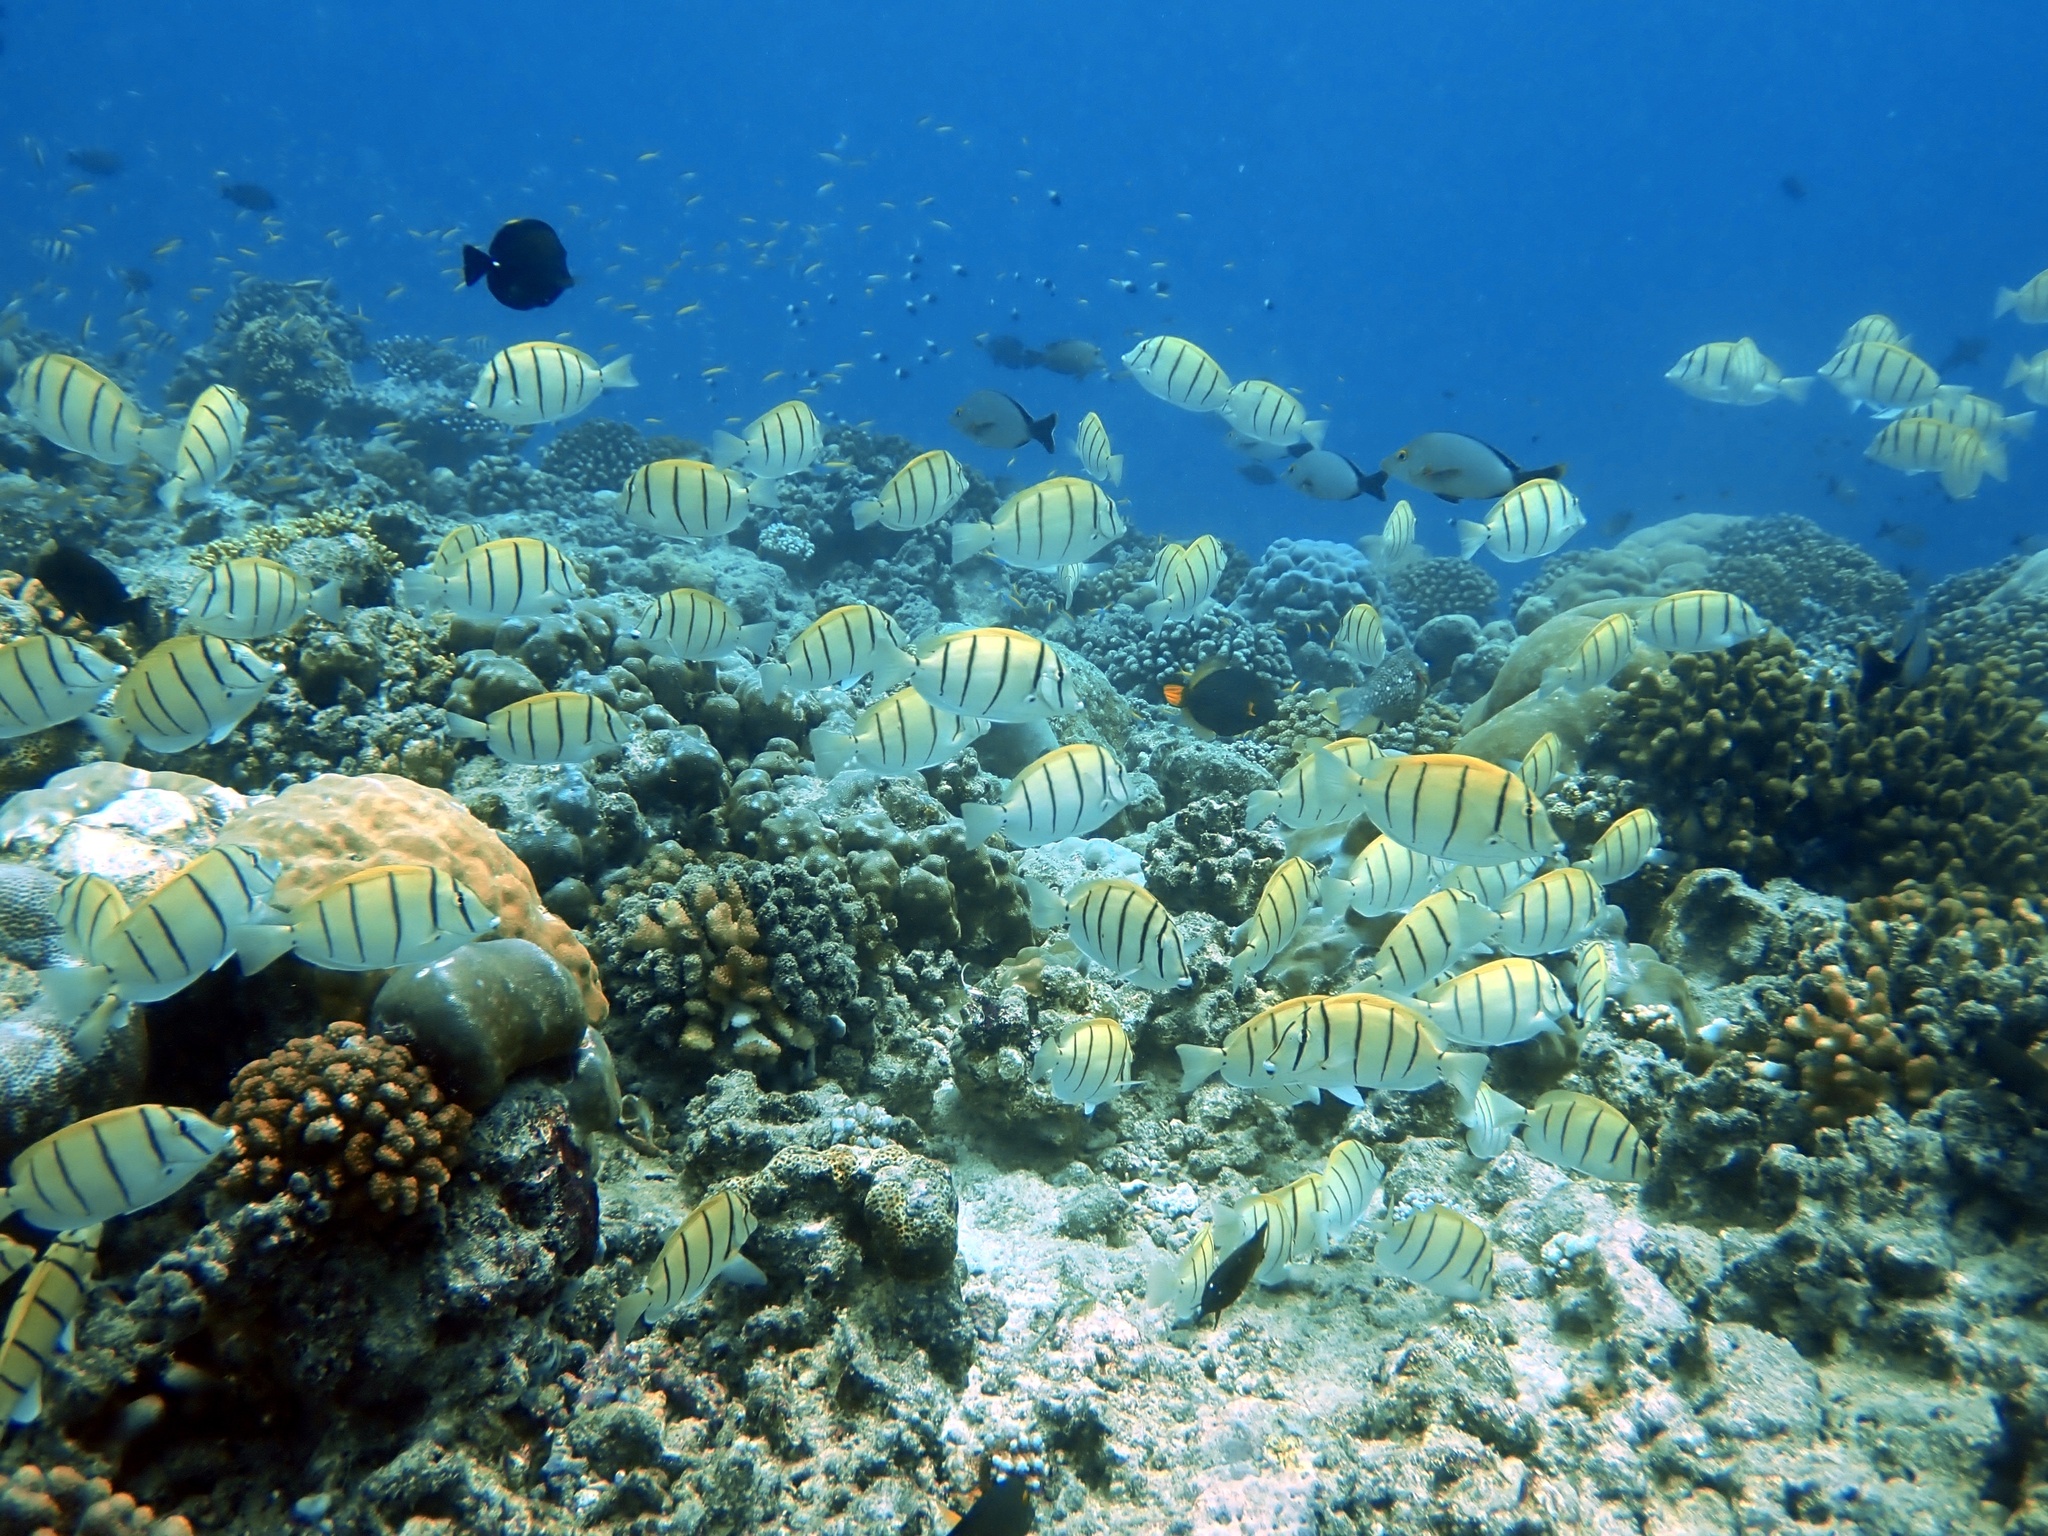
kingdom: Animalia
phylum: Chordata
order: Perciformes
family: Acanthuridae
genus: Acanthurus
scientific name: Acanthurus triostegus
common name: Convict surgeonfish
